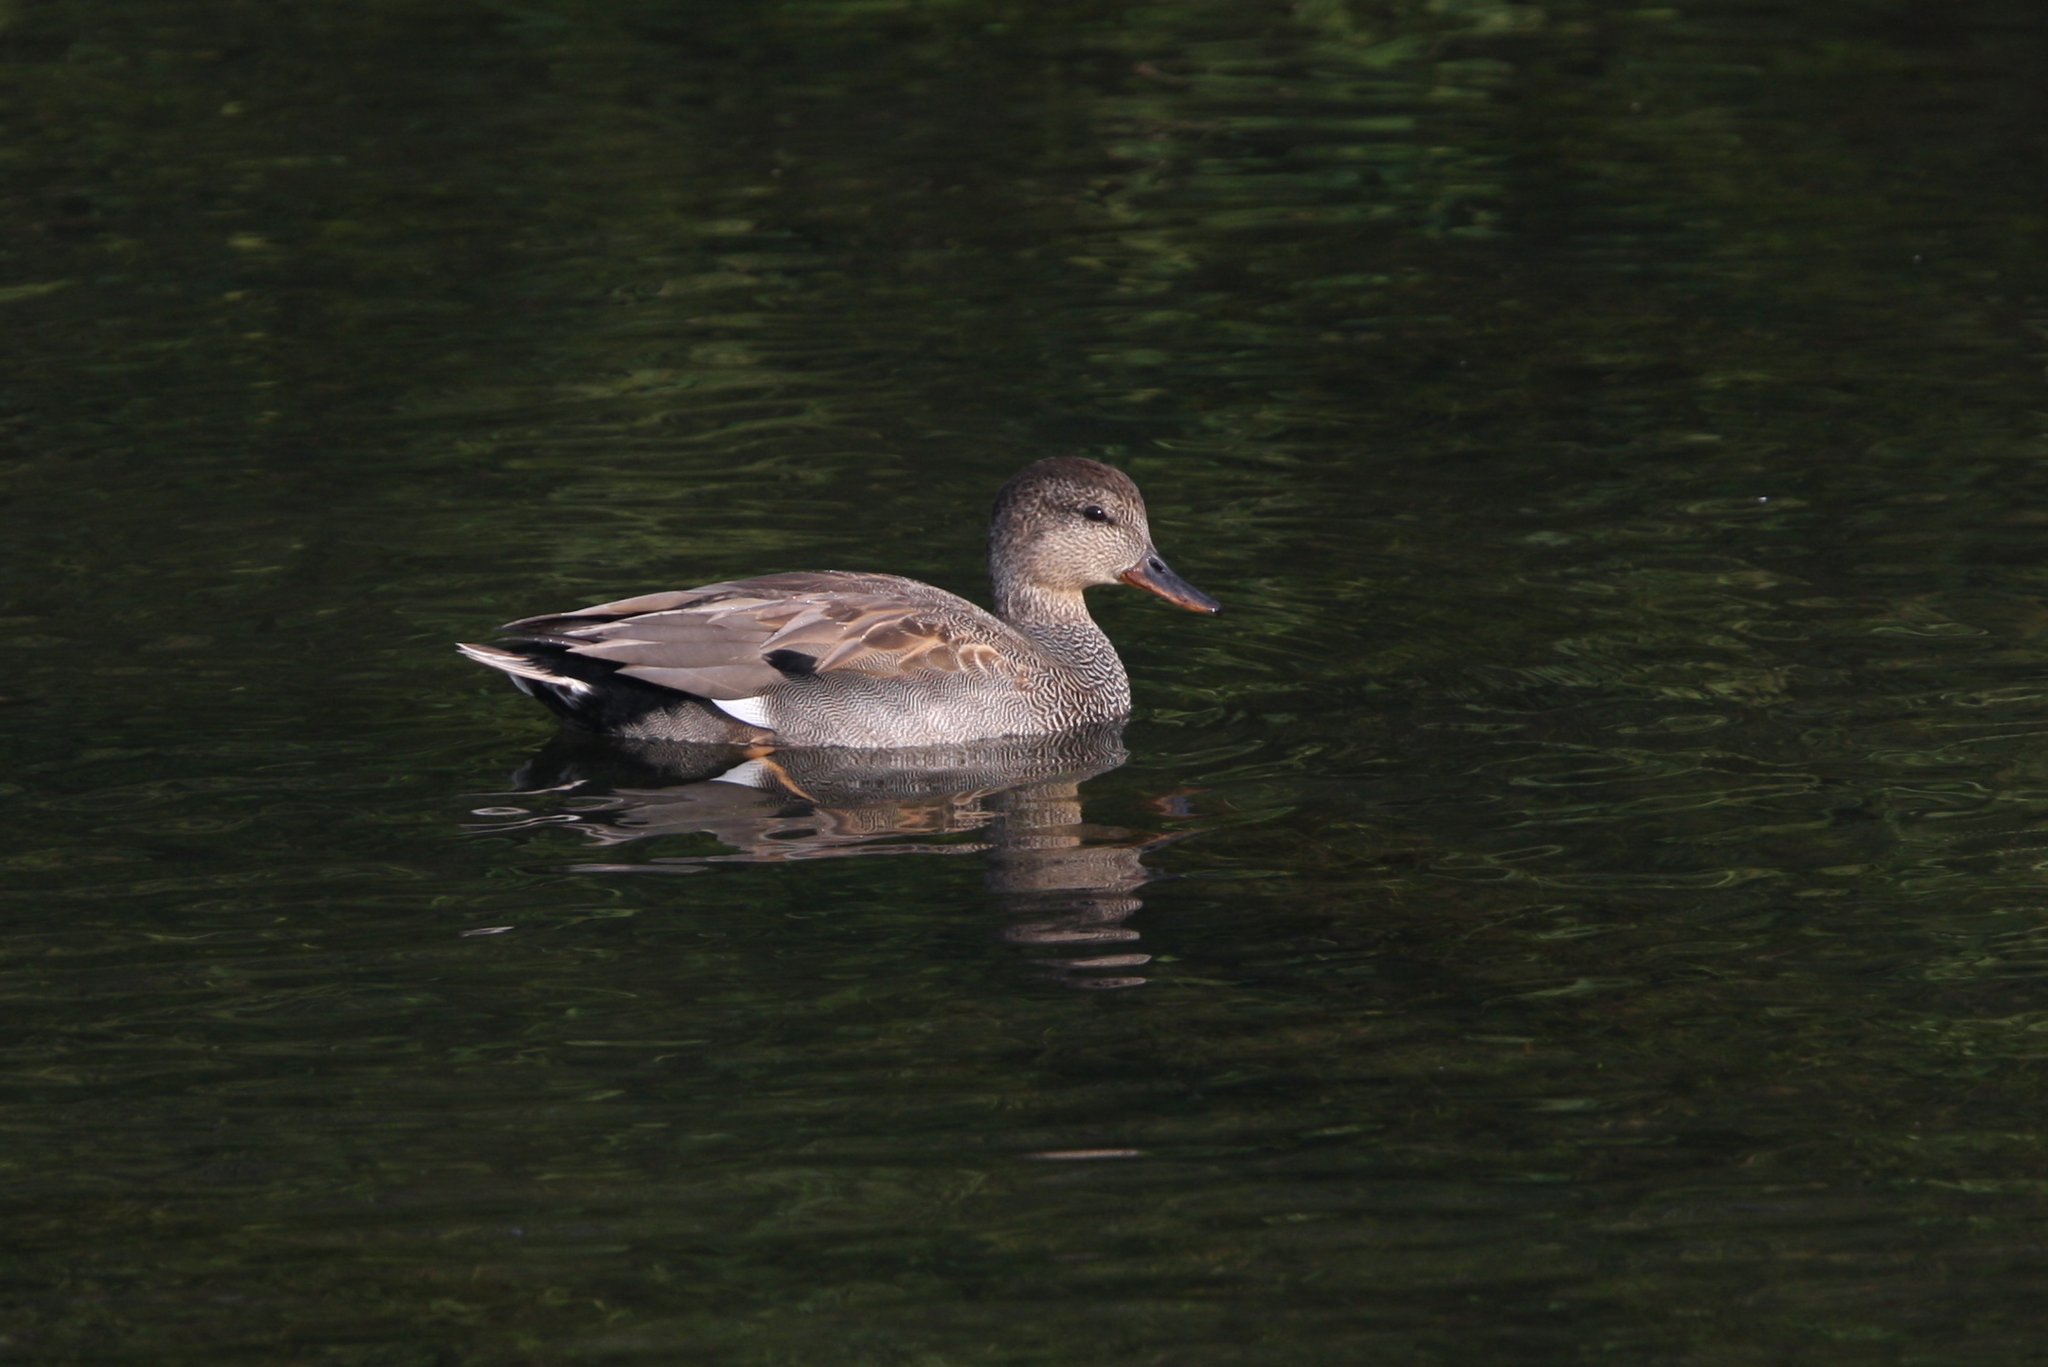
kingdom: Animalia
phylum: Chordata
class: Aves
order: Anseriformes
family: Anatidae
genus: Mareca
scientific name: Mareca strepera
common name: Gadwall
